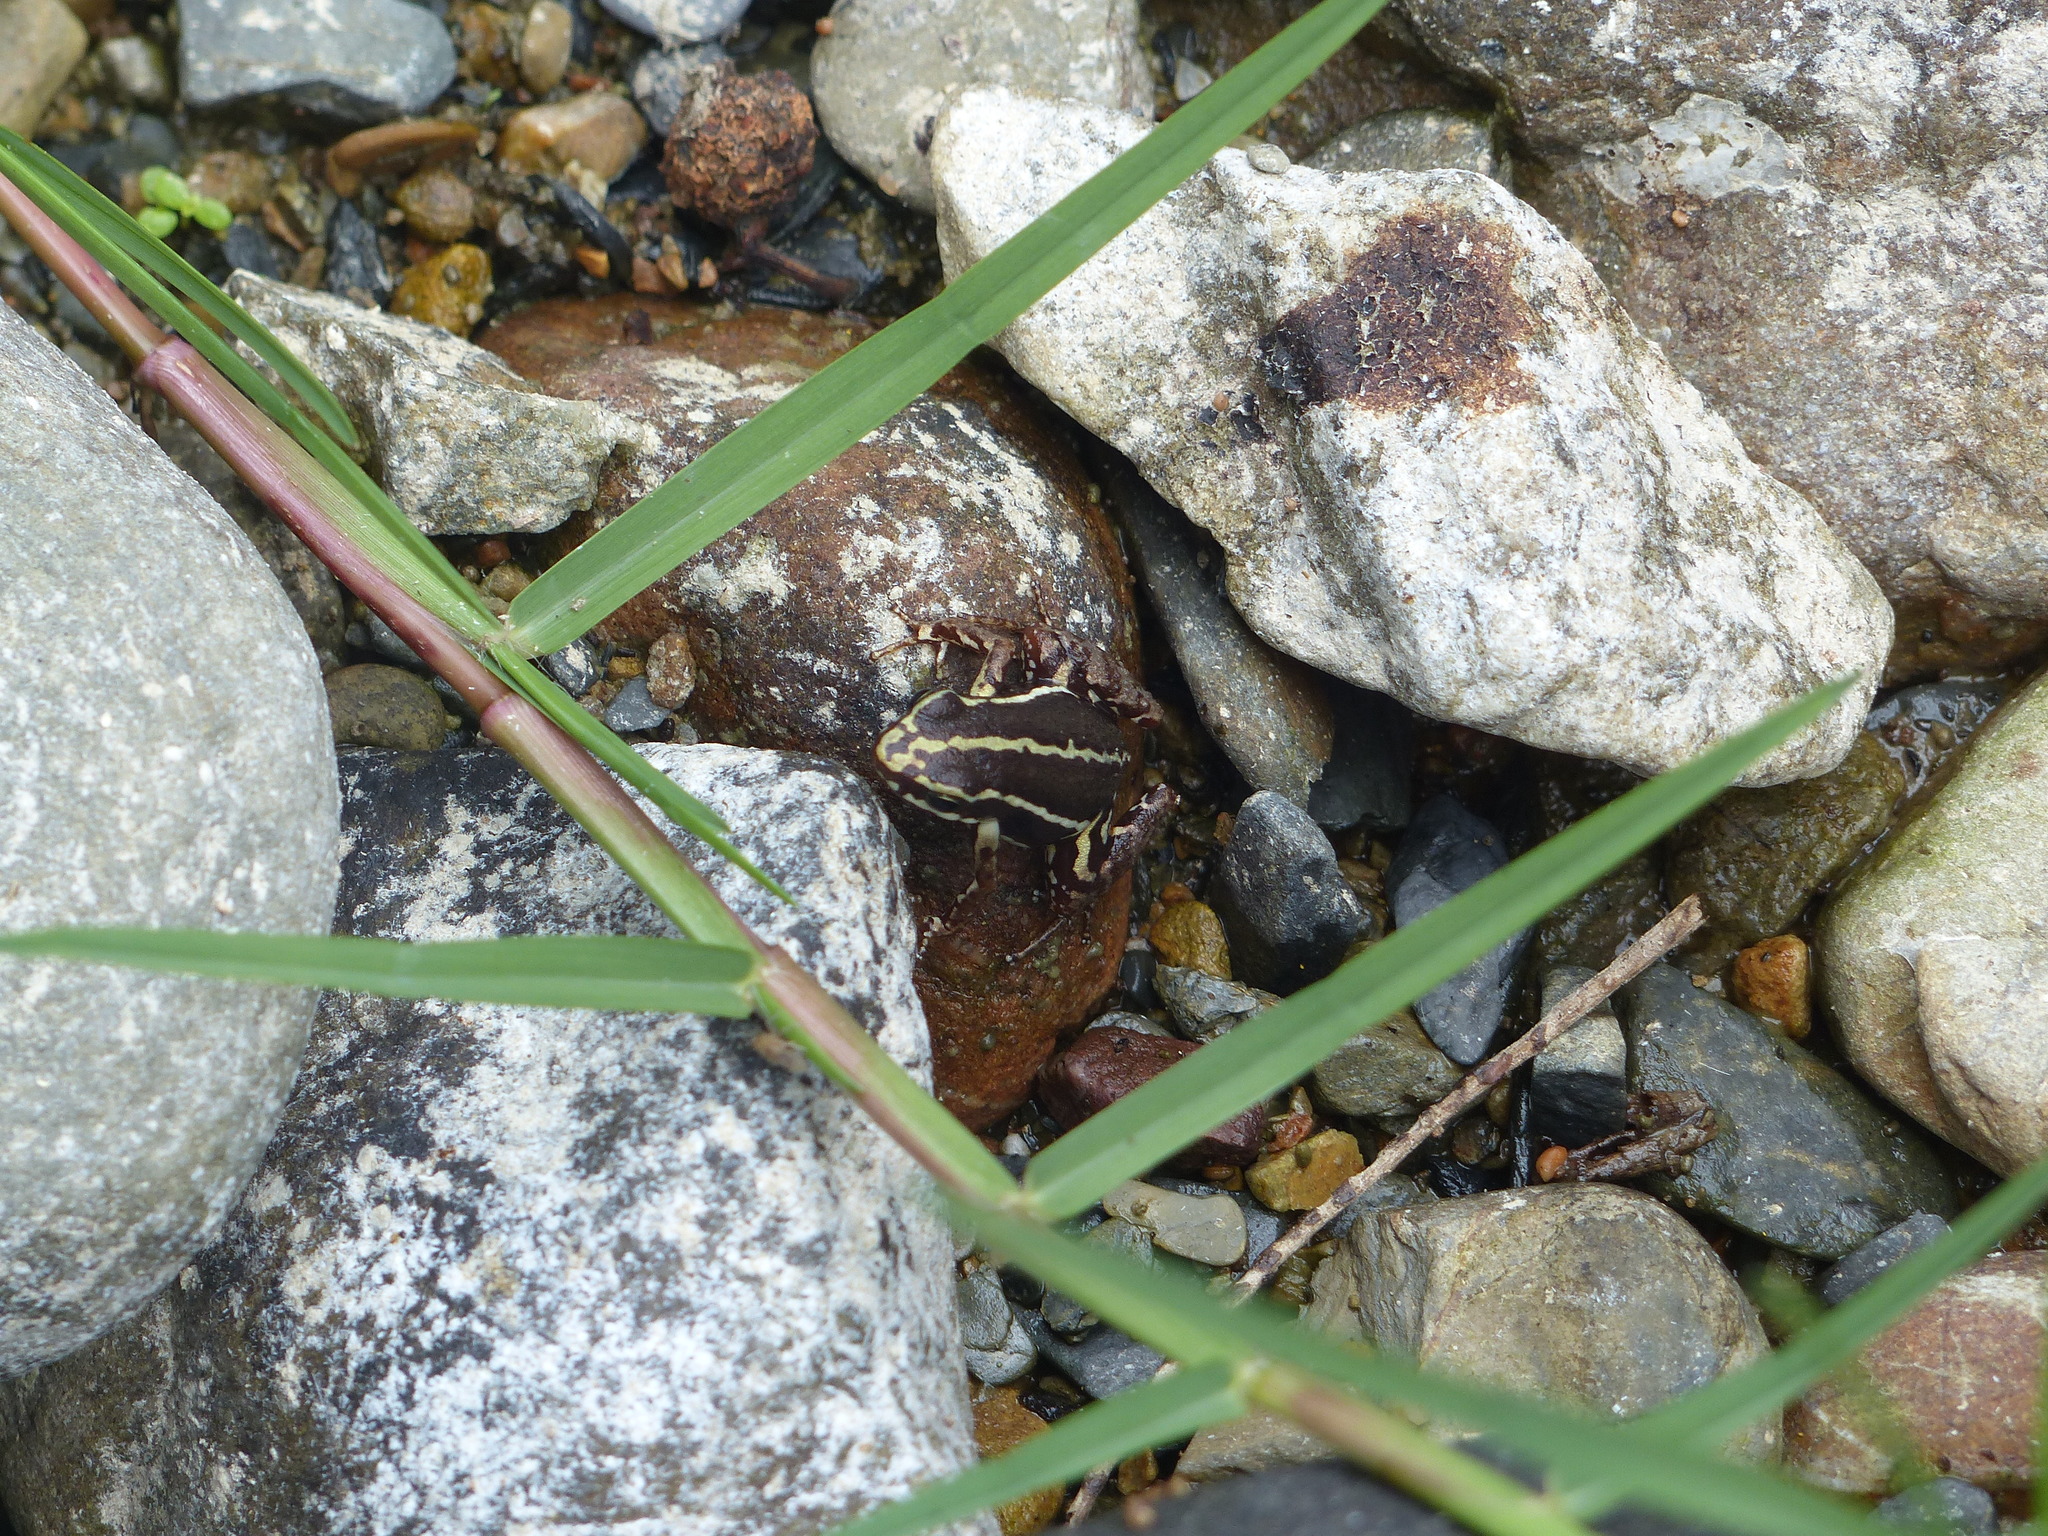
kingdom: Animalia
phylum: Chordata
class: Amphibia
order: Anura
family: Dendrobatidae
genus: Epipedobates
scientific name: Epipedobates anthonyi
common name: Anthony´s poison-arrow frog
